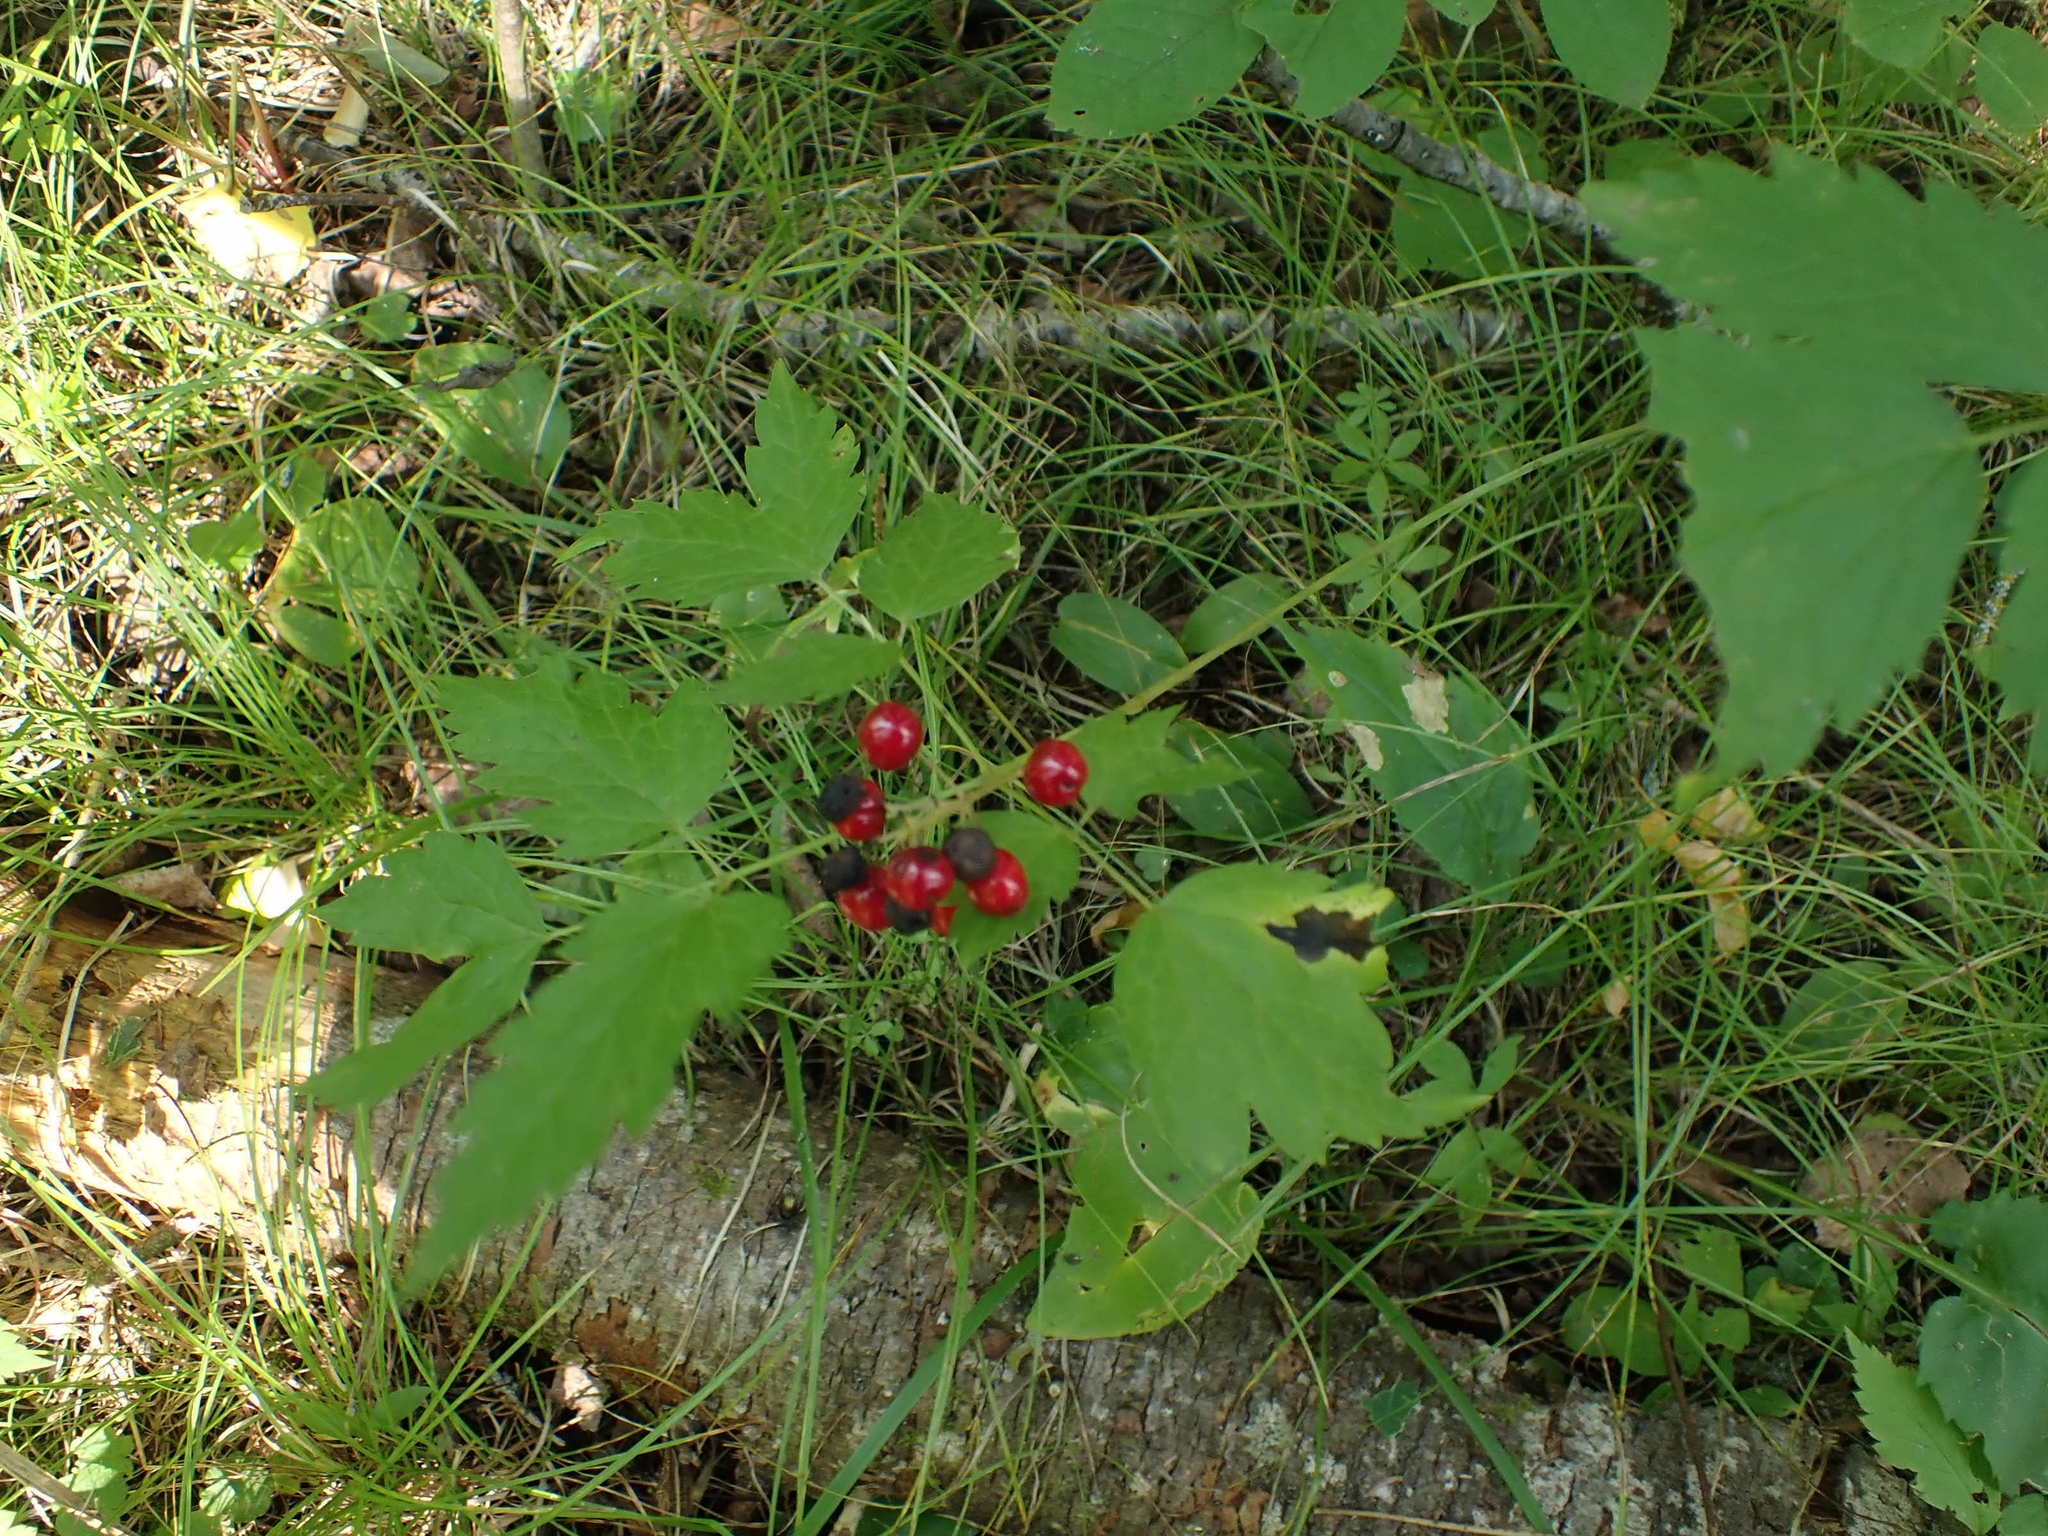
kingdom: Plantae
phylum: Tracheophyta
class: Magnoliopsida
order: Ranunculales
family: Ranunculaceae
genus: Actaea
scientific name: Actaea rubra
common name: Red baneberry
